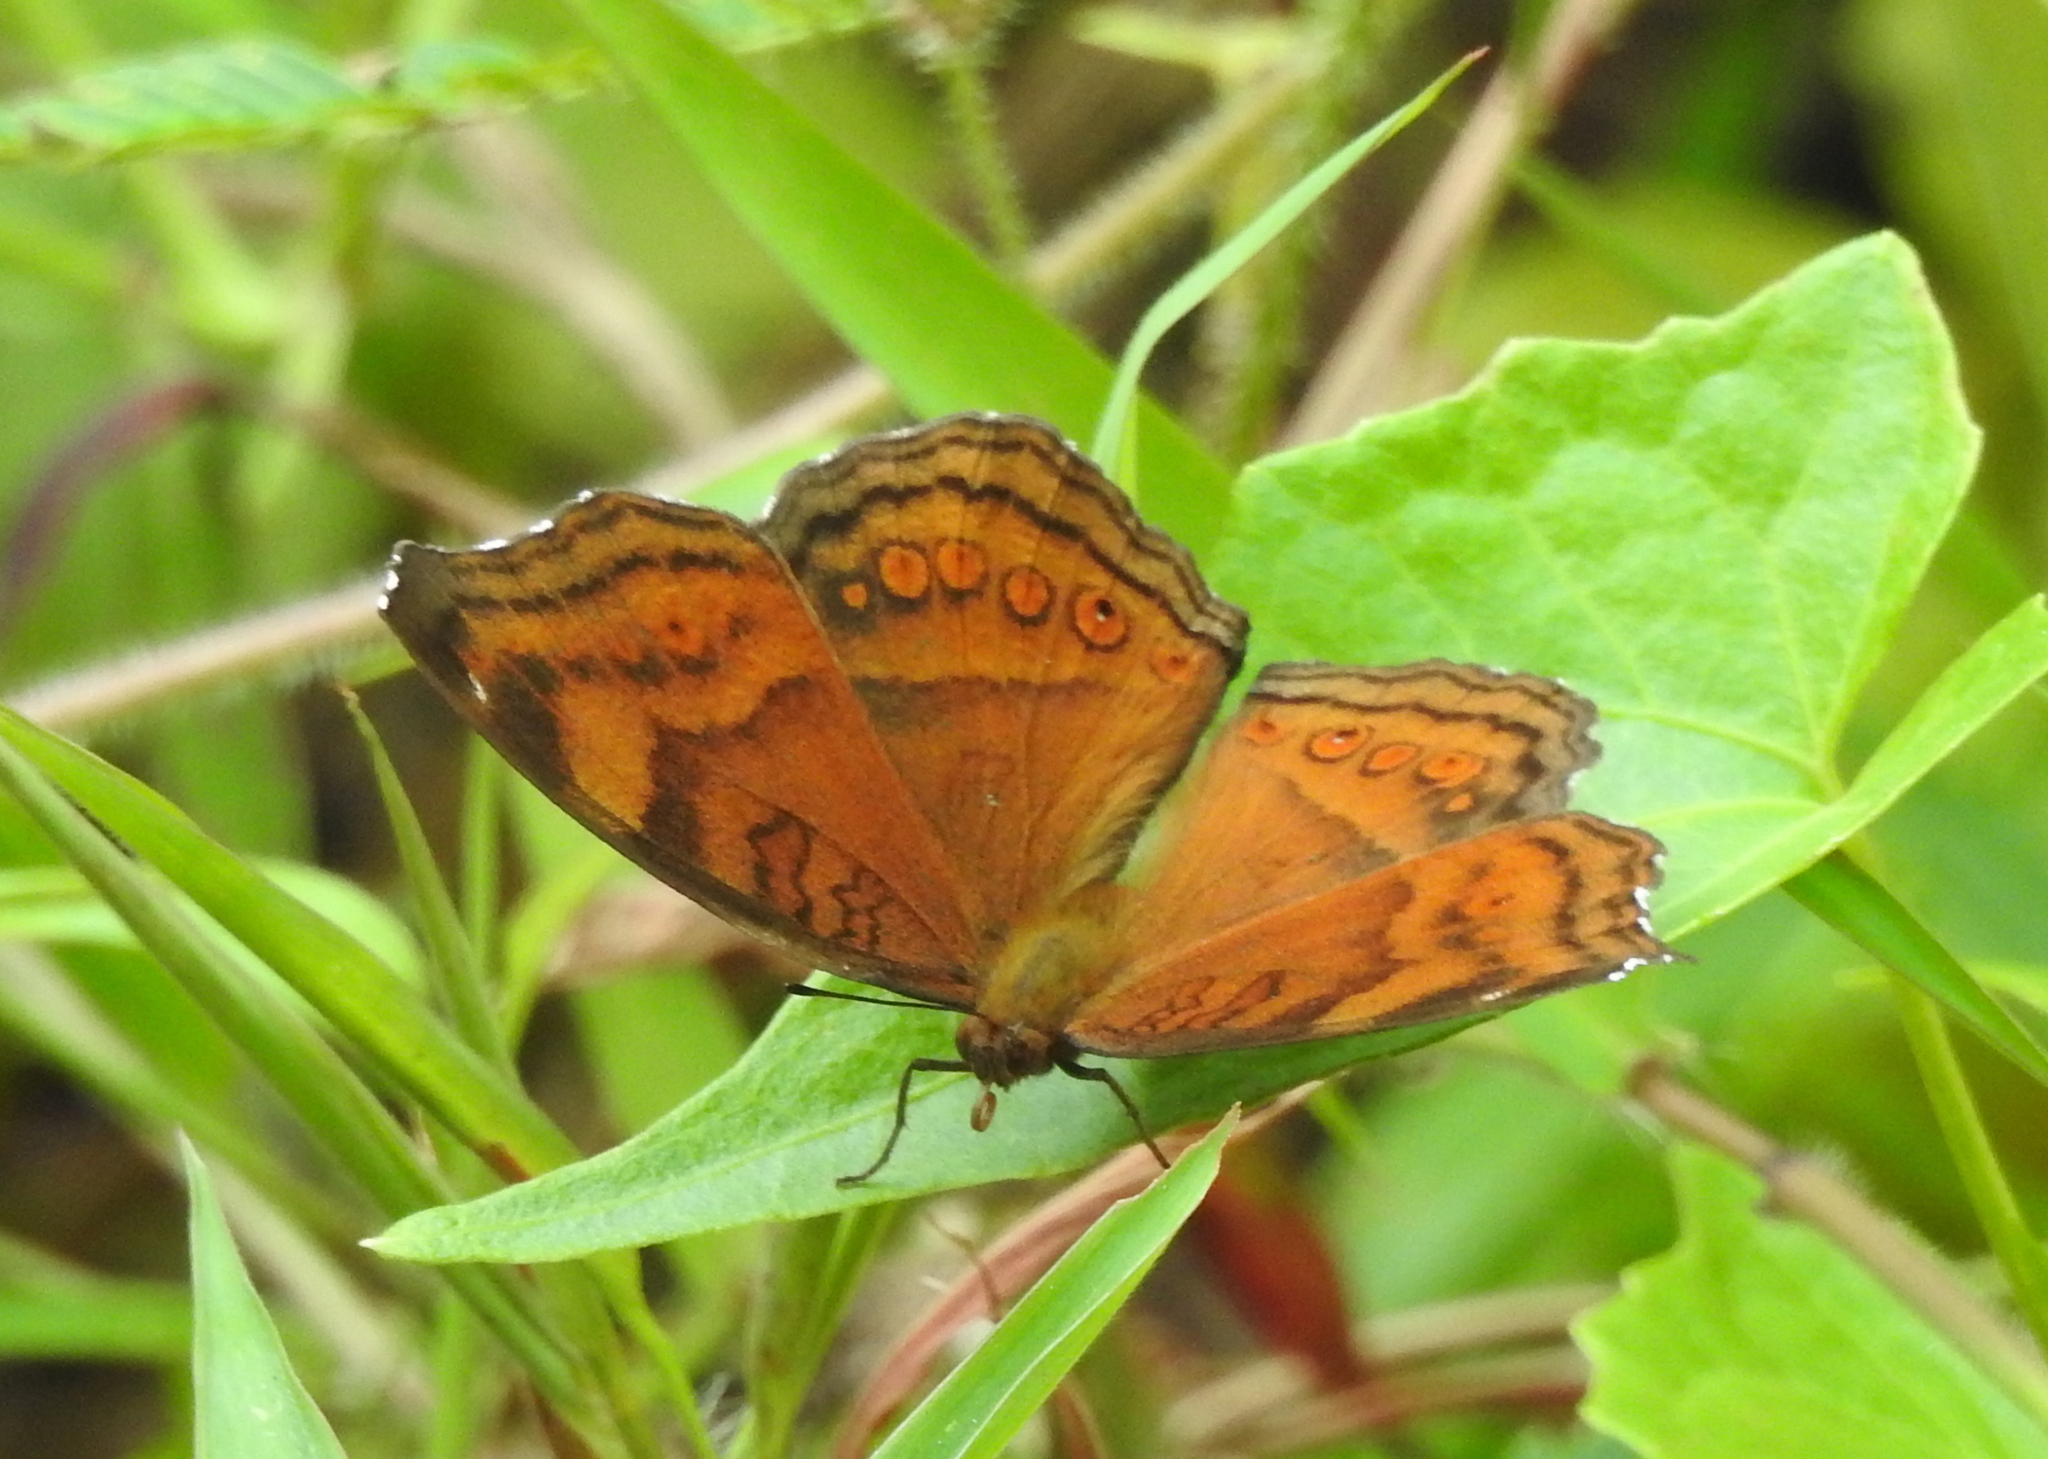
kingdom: Animalia
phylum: Arthropoda
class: Insecta
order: Lepidoptera
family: Nymphalidae
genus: Junonia
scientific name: Junonia hedonia
